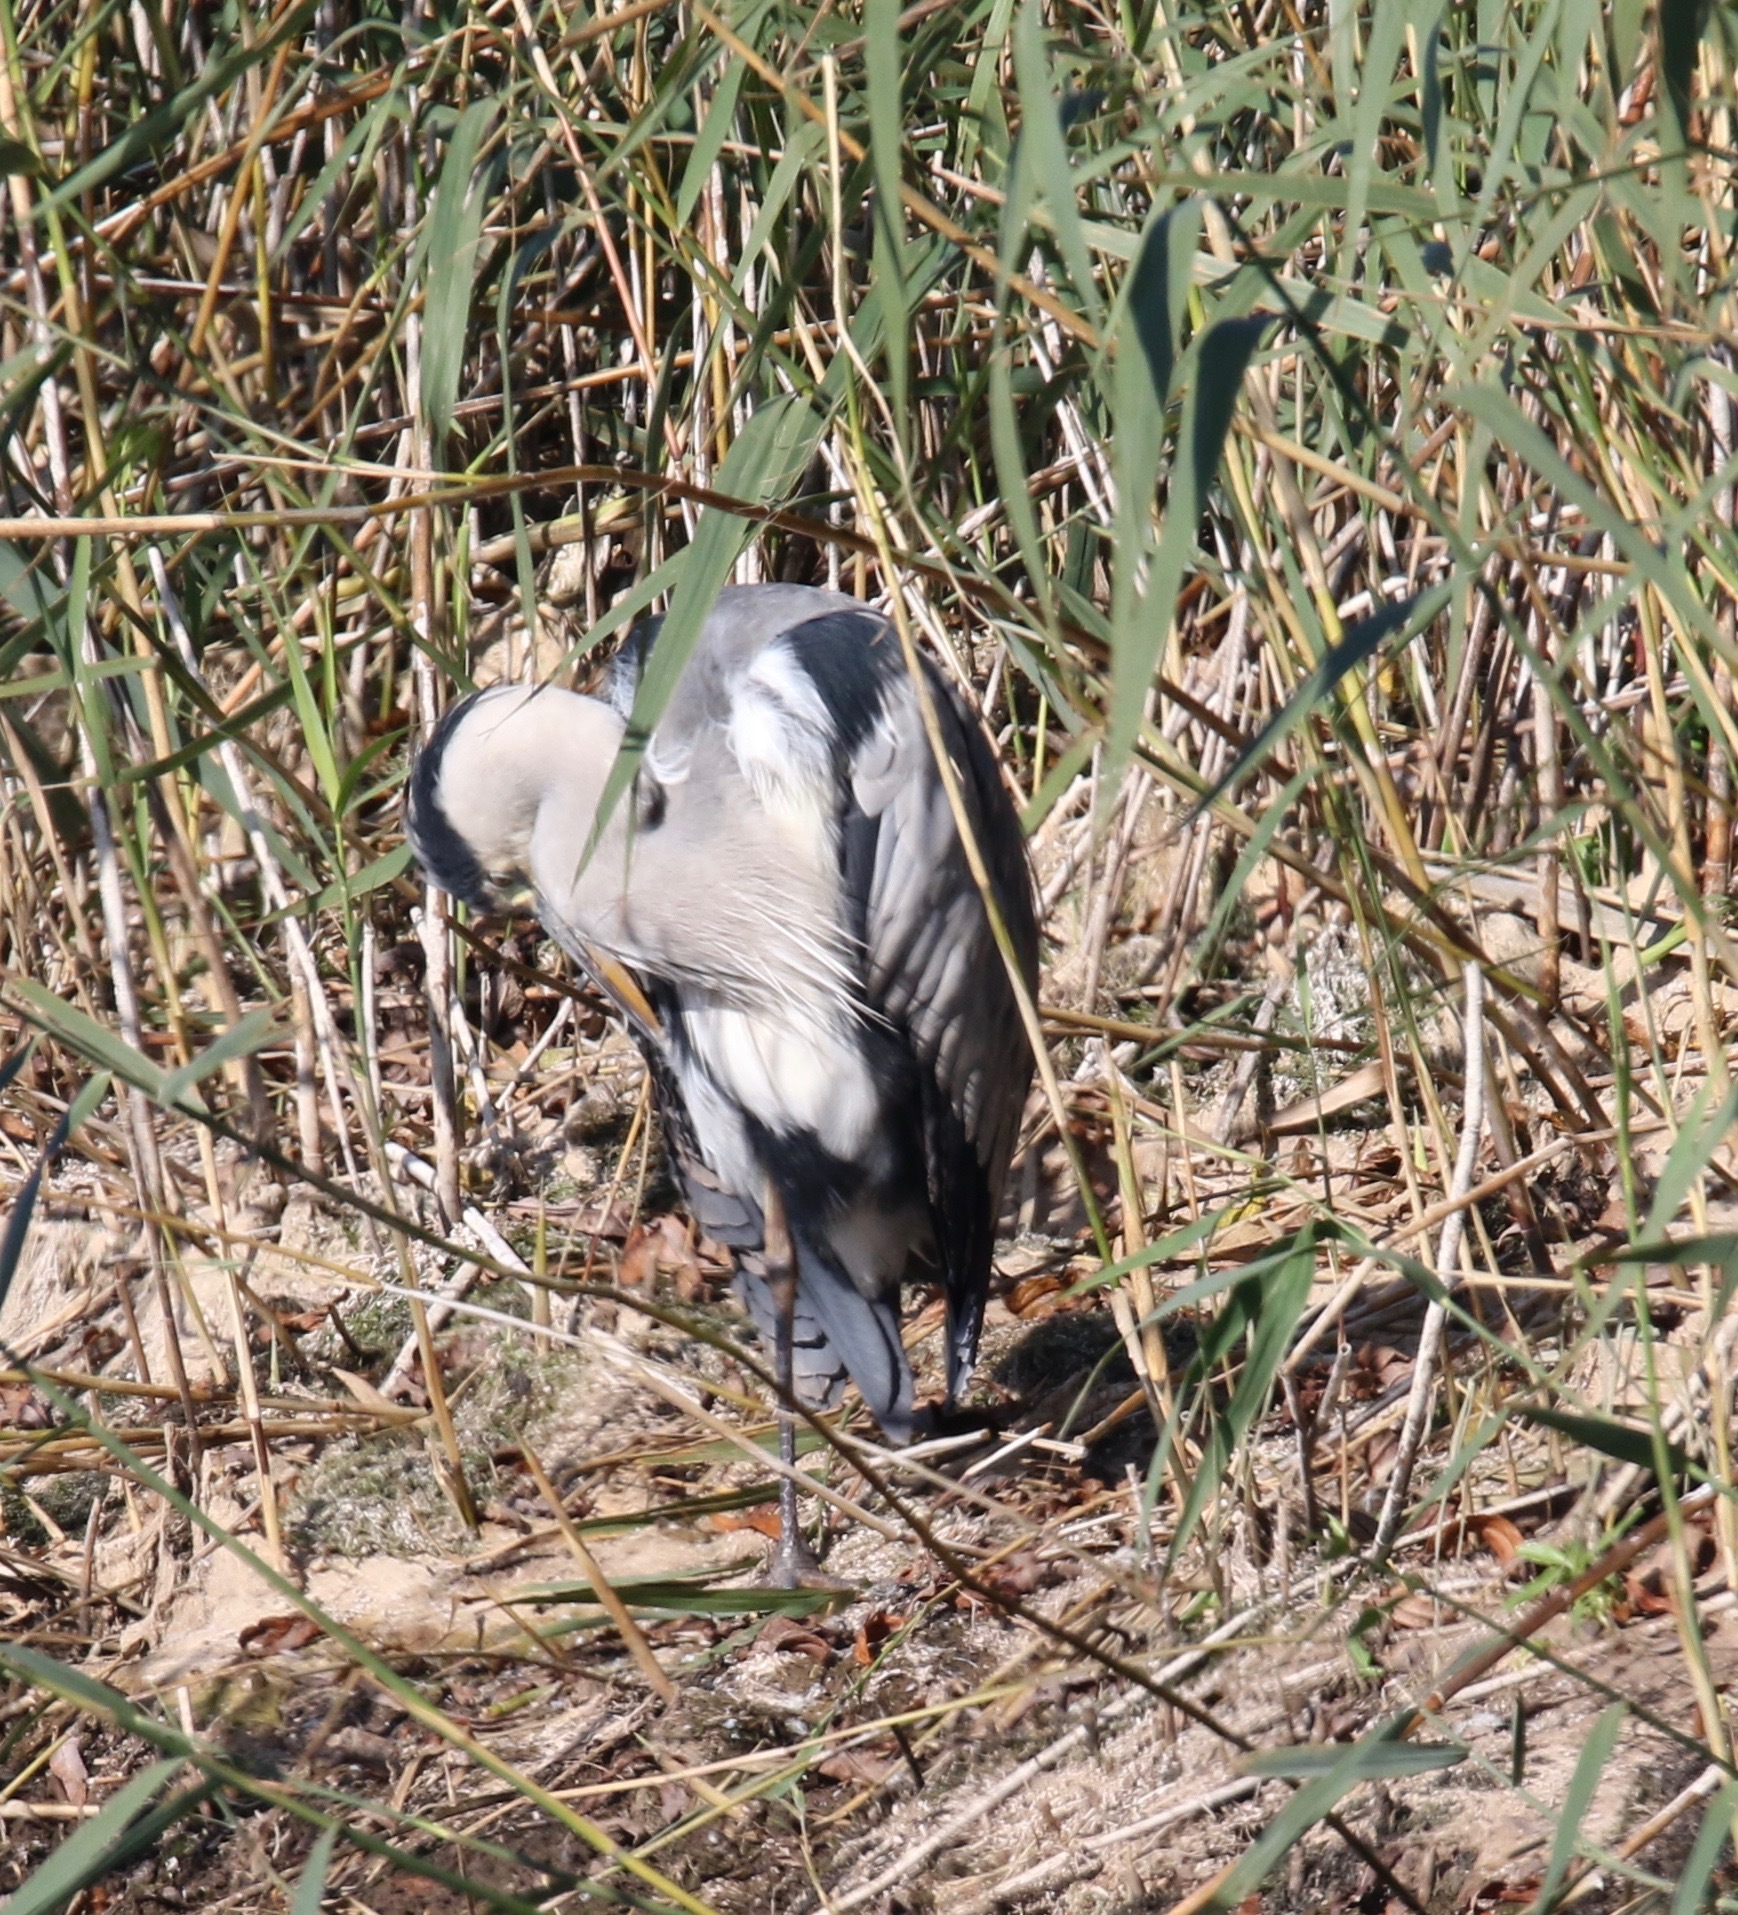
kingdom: Animalia
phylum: Chordata
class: Aves
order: Pelecaniformes
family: Ardeidae
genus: Ardea
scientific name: Ardea cinerea
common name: Grey heron
